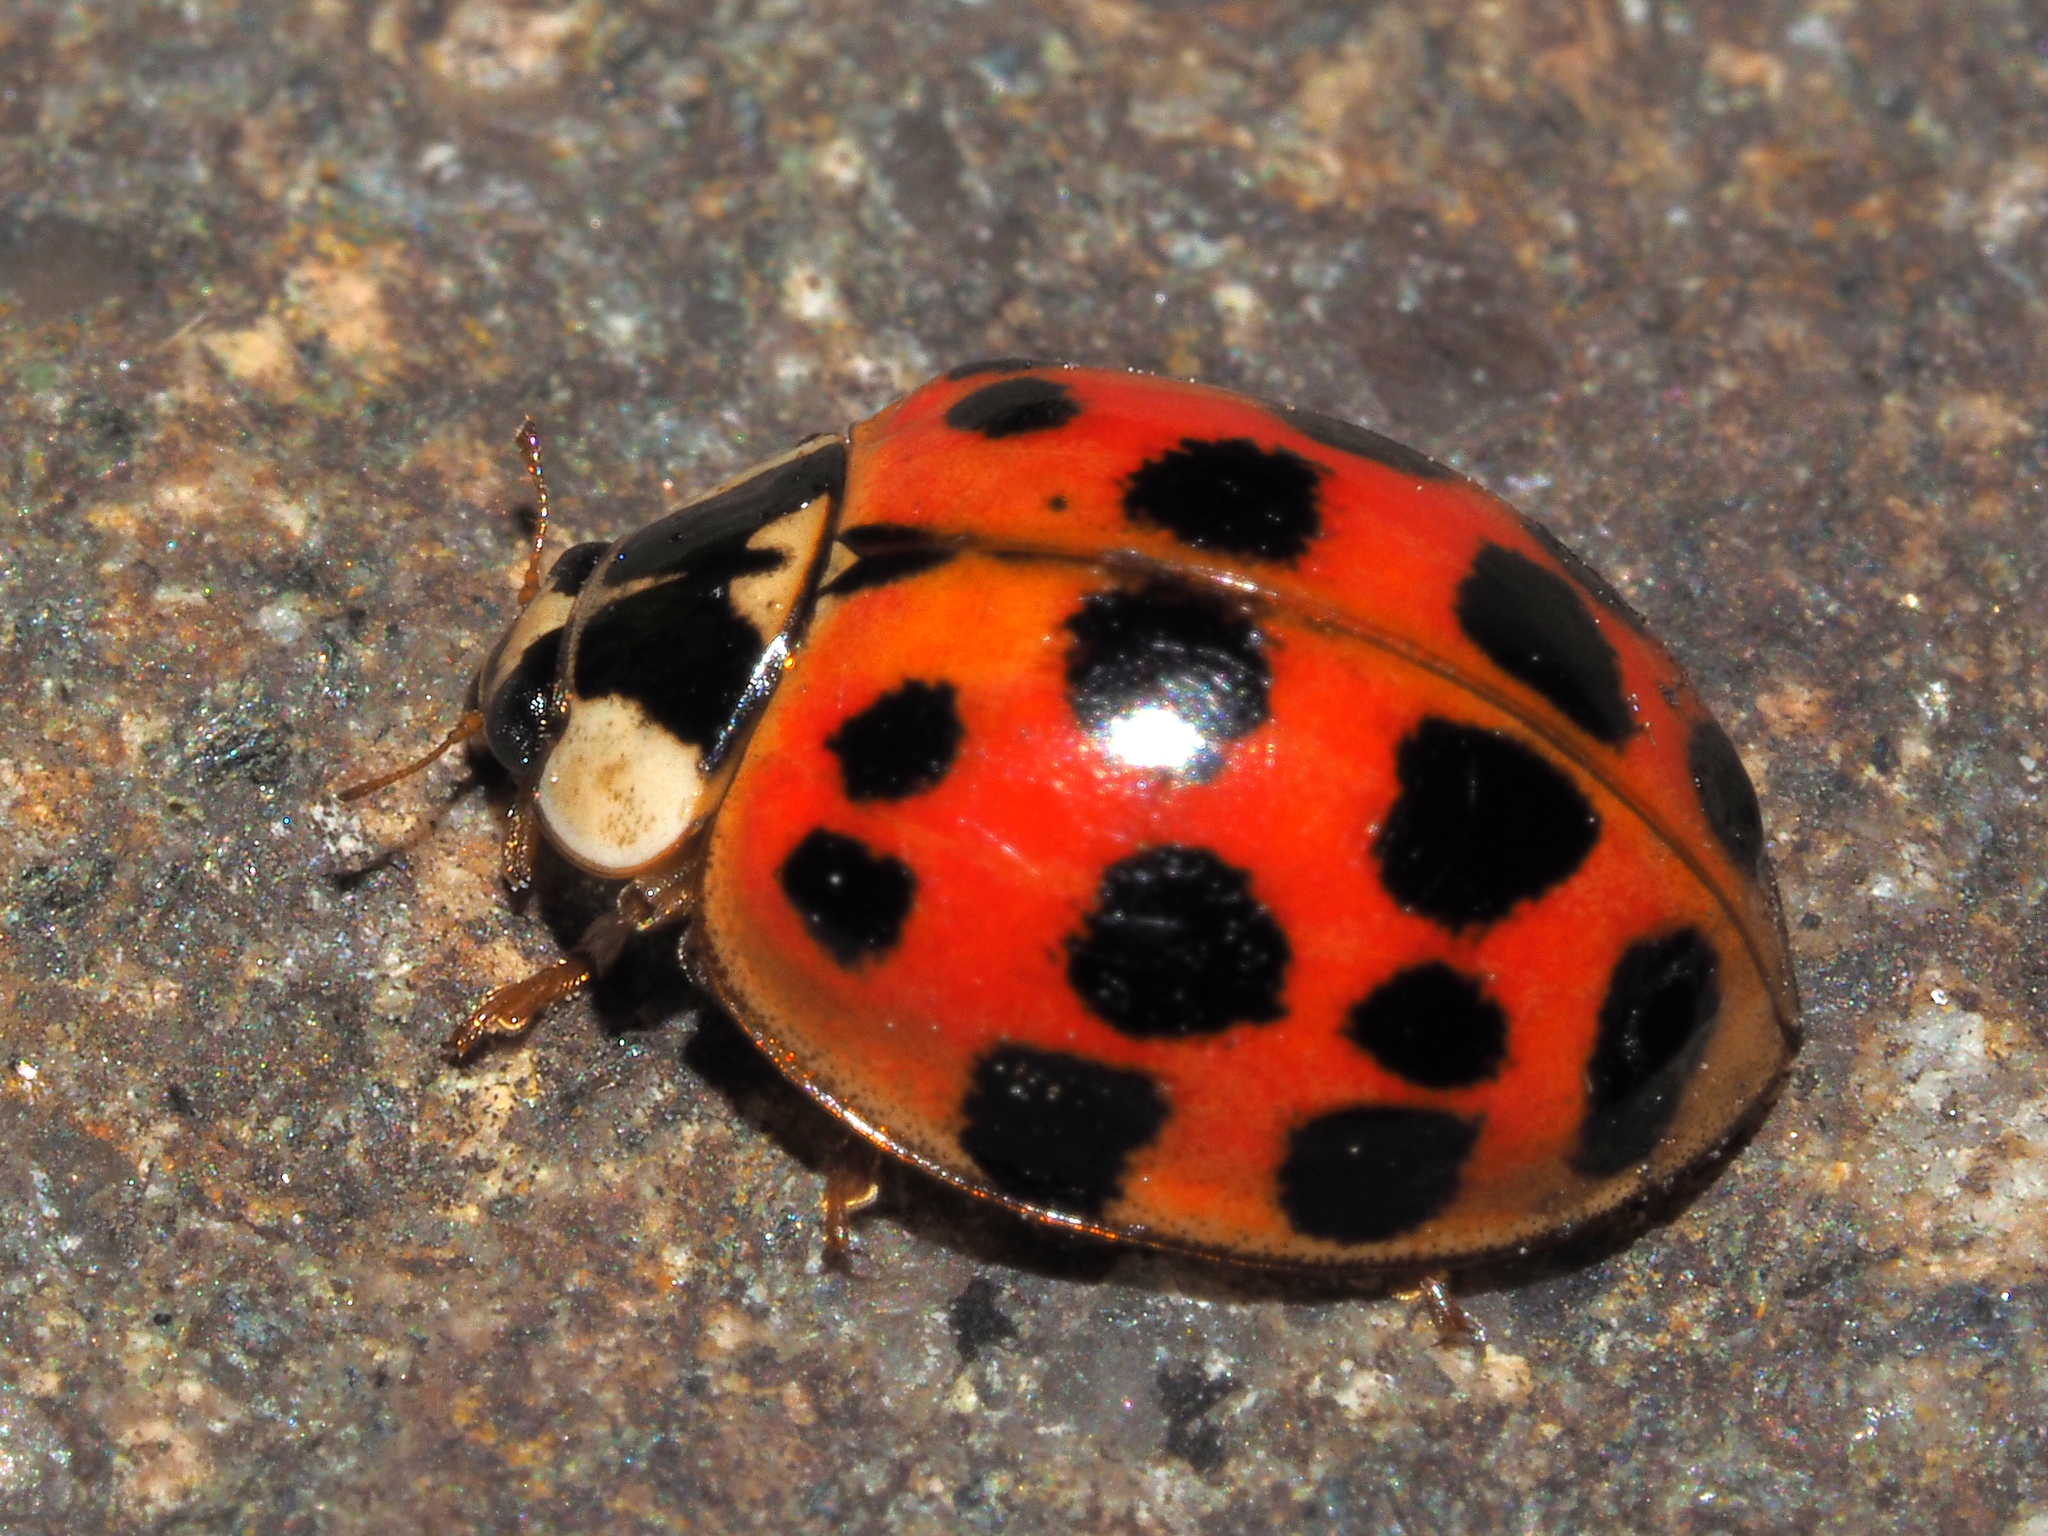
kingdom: Animalia
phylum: Arthropoda
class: Insecta
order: Coleoptera
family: Coccinellidae
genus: Harmonia
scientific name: Harmonia axyridis
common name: Harlequin ladybird
